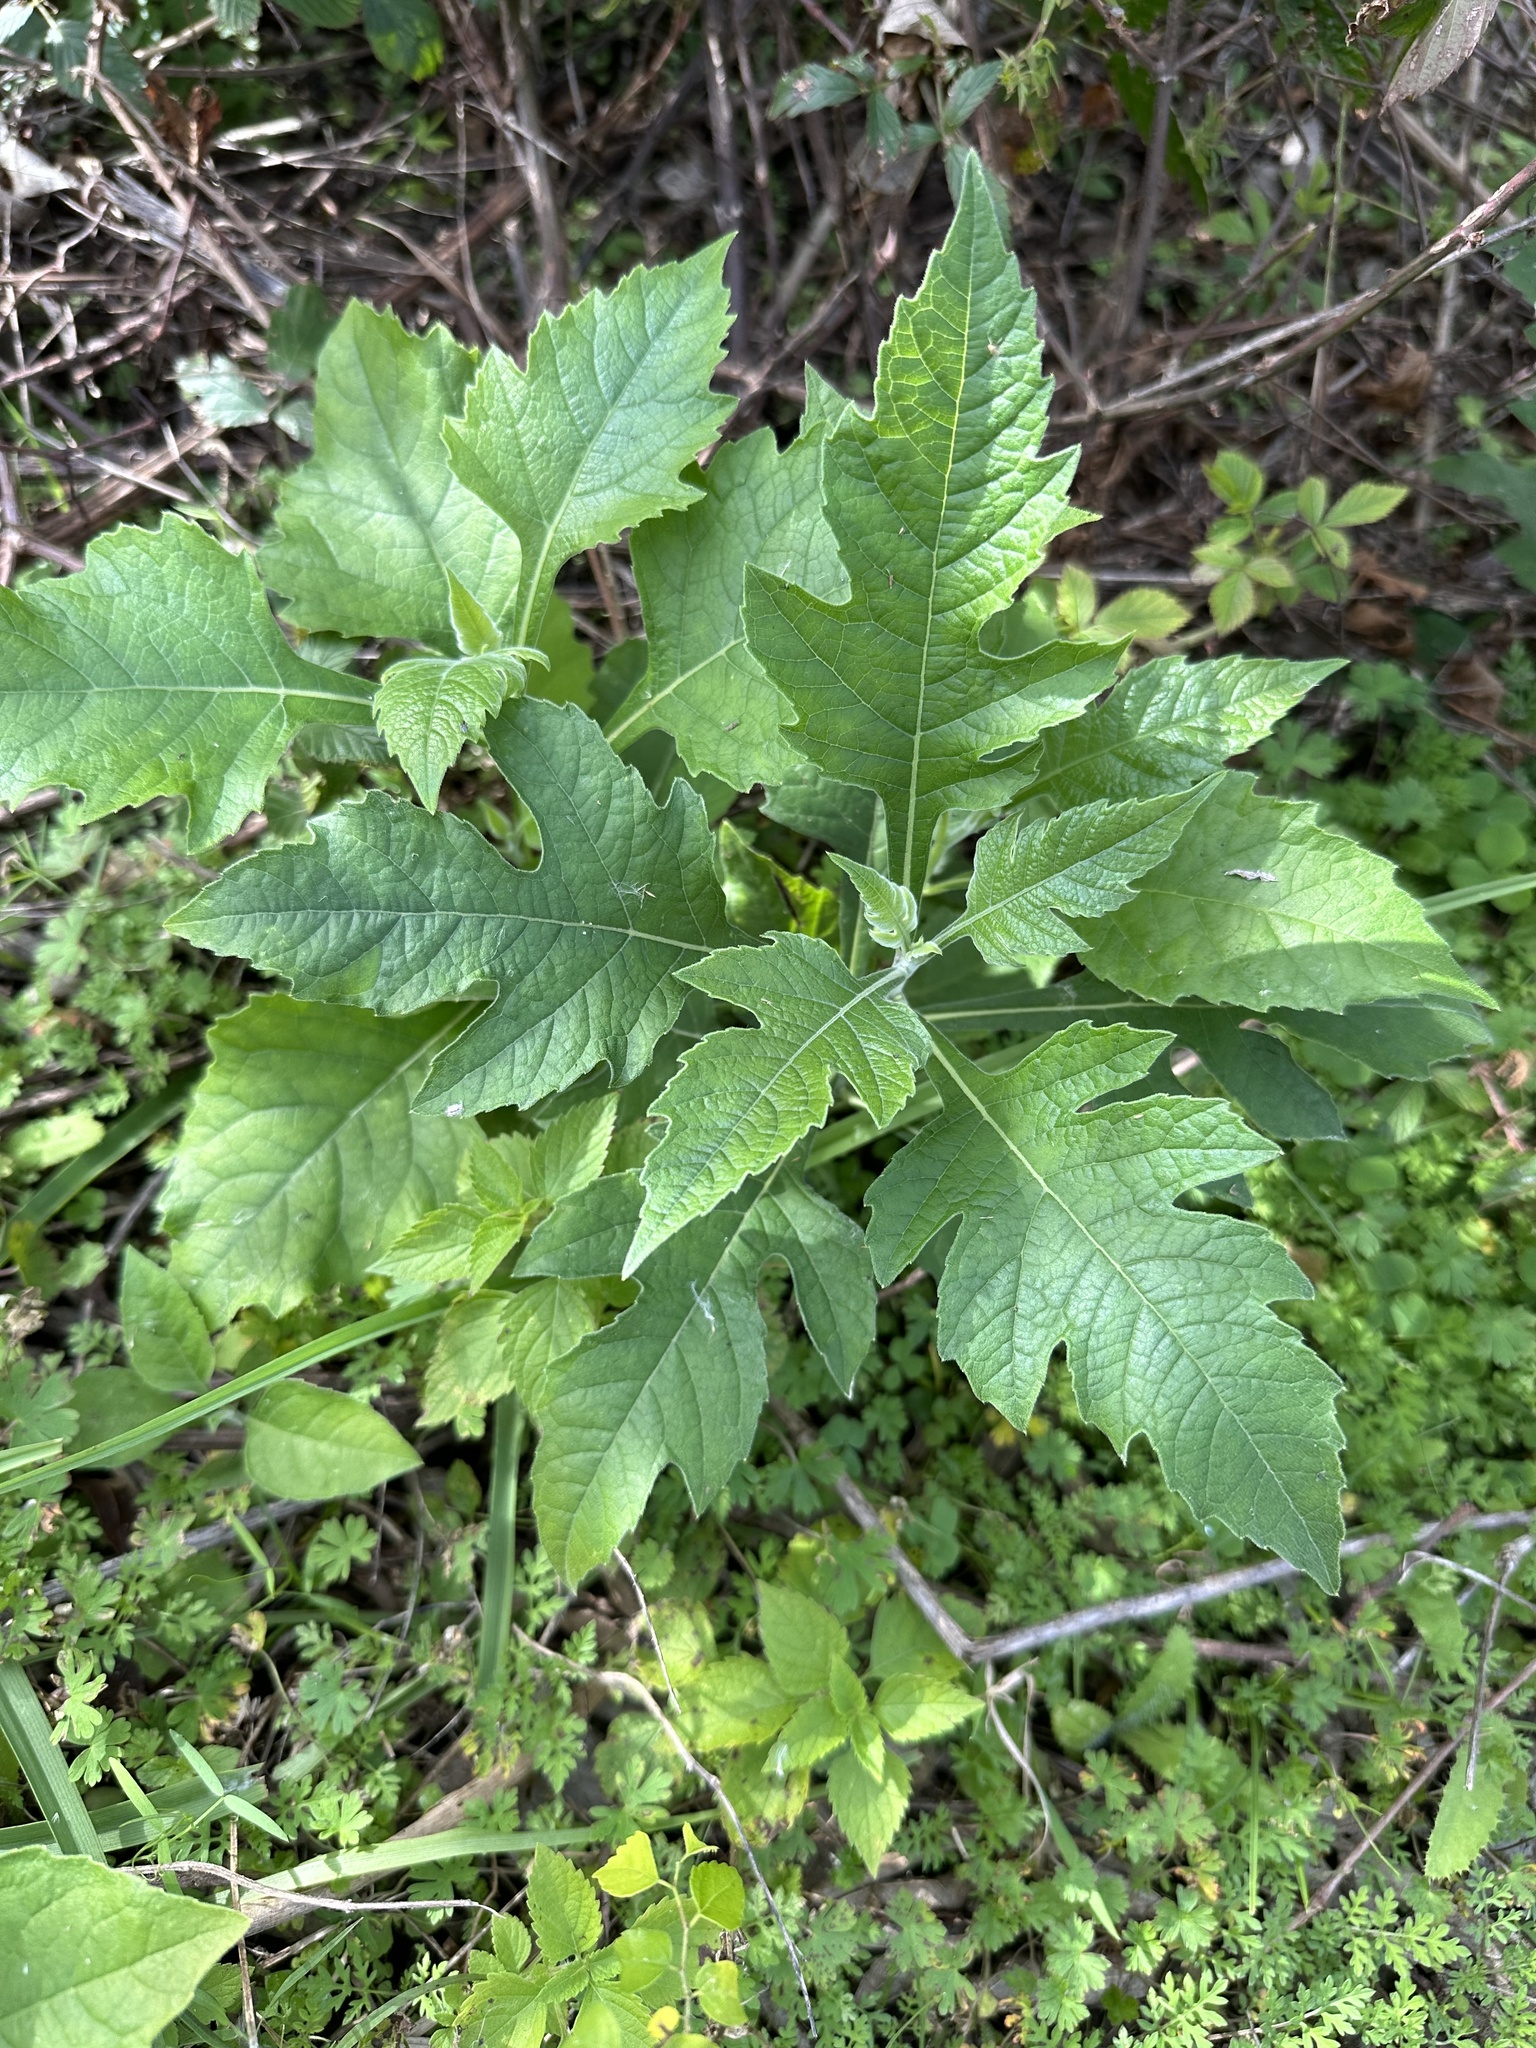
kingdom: Plantae
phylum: Tracheophyta
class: Magnoliopsida
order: Asterales
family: Asteraceae
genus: Verbesina
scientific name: Verbesina virginica
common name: Frostweed
